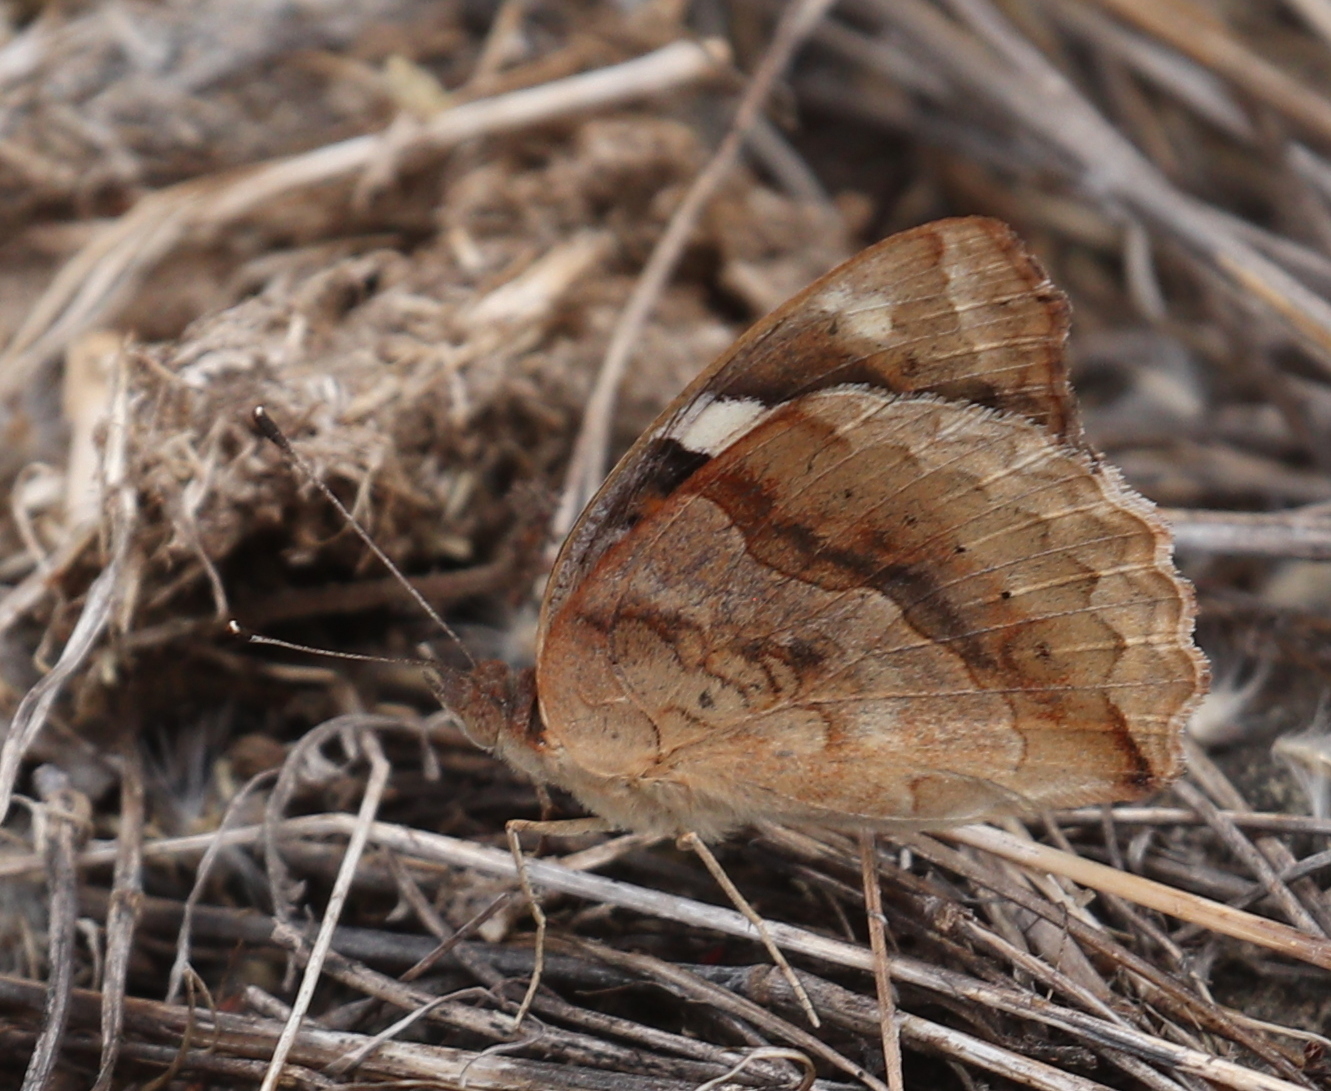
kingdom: Animalia
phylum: Arthropoda
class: Insecta
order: Lepidoptera
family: Nymphalidae
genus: Junonia
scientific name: Junonia oenone
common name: Dark blue pansy
